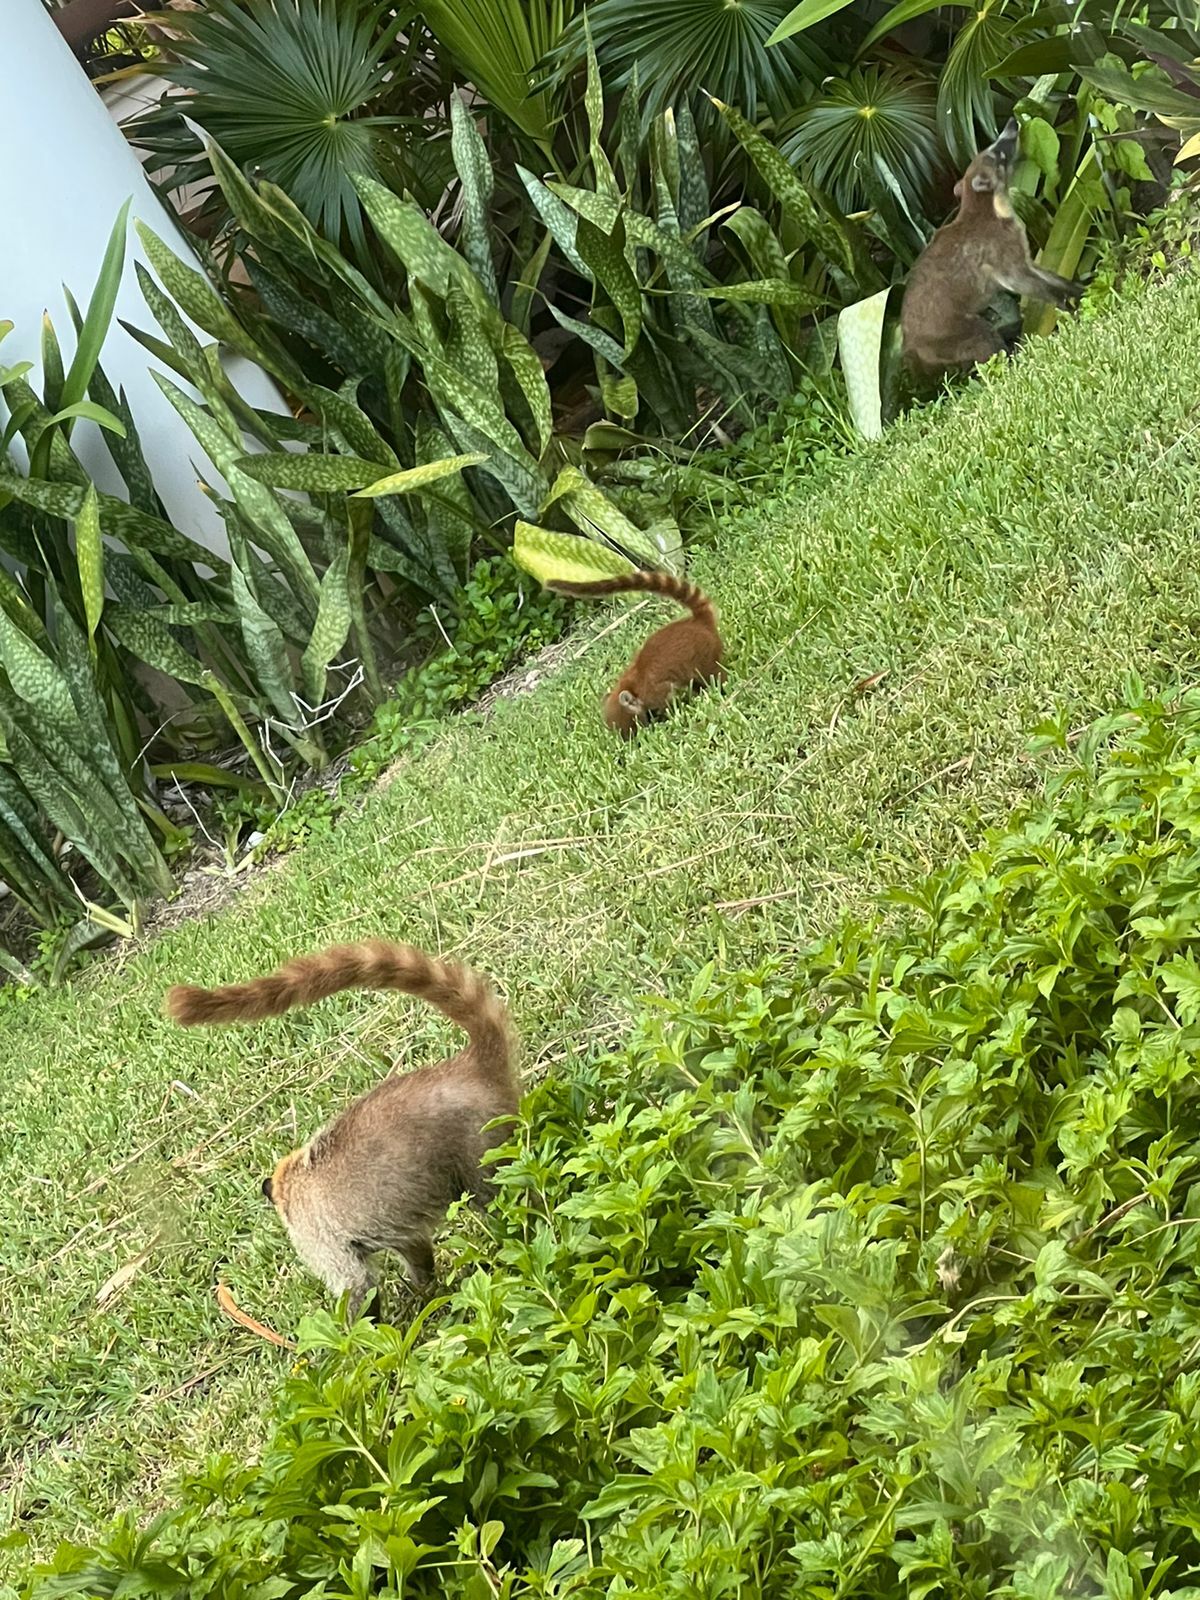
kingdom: Animalia
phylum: Chordata
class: Mammalia
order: Carnivora
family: Procyonidae
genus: Nasua
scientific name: Nasua narica
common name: White-nosed coati
